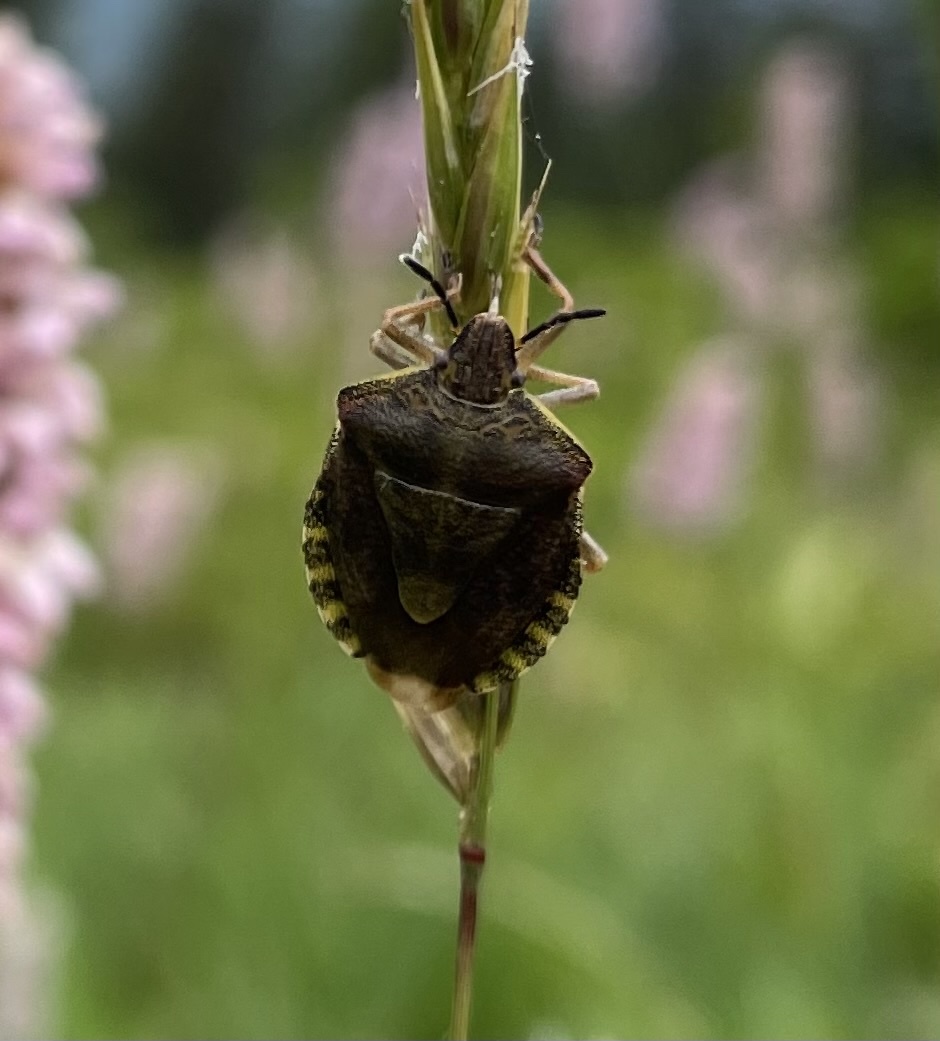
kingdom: Animalia
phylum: Arthropoda
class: Insecta
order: Hemiptera
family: Pentatomidae
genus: Carpocoris
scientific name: Carpocoris melanocerus
